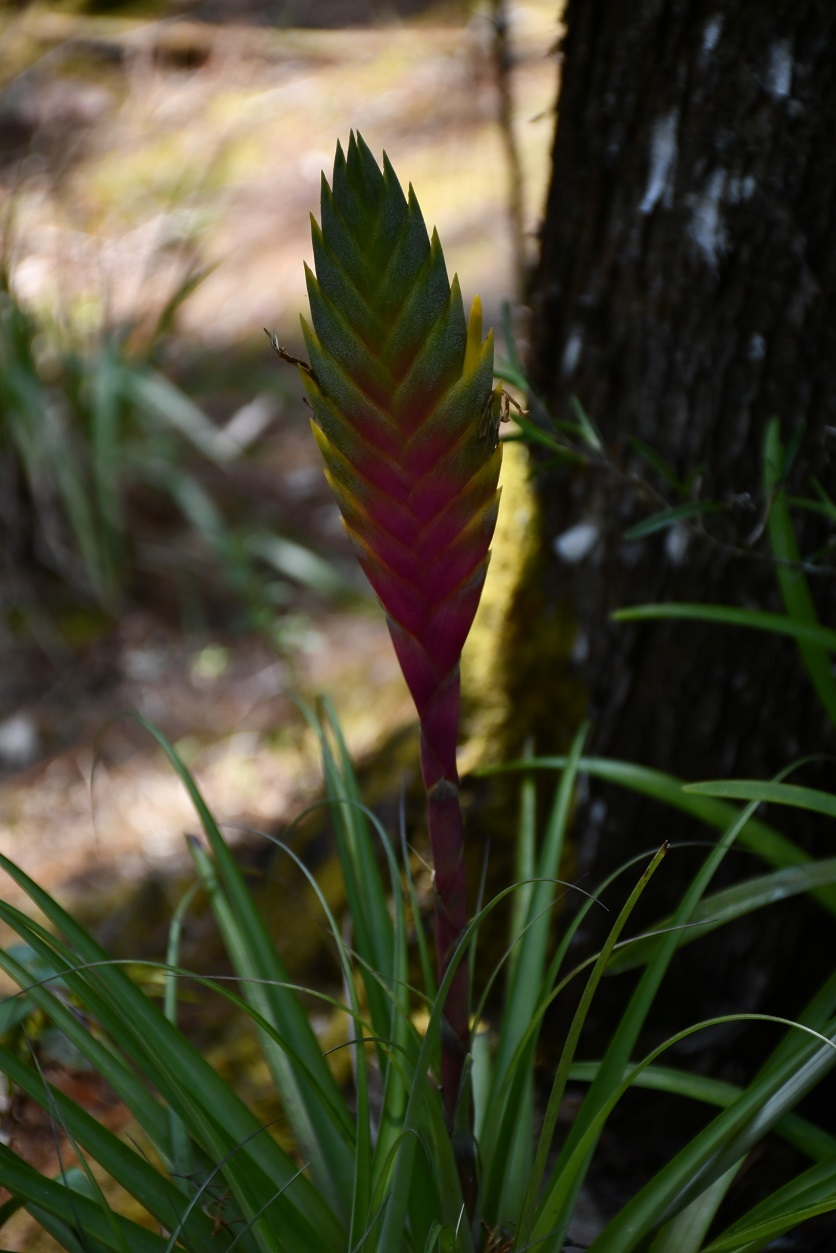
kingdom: Plantae
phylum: Tracheophyta
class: Liliopsida
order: Poales
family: Bromeliaceae
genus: Tillandsia
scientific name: Tillandsia lampropoda
